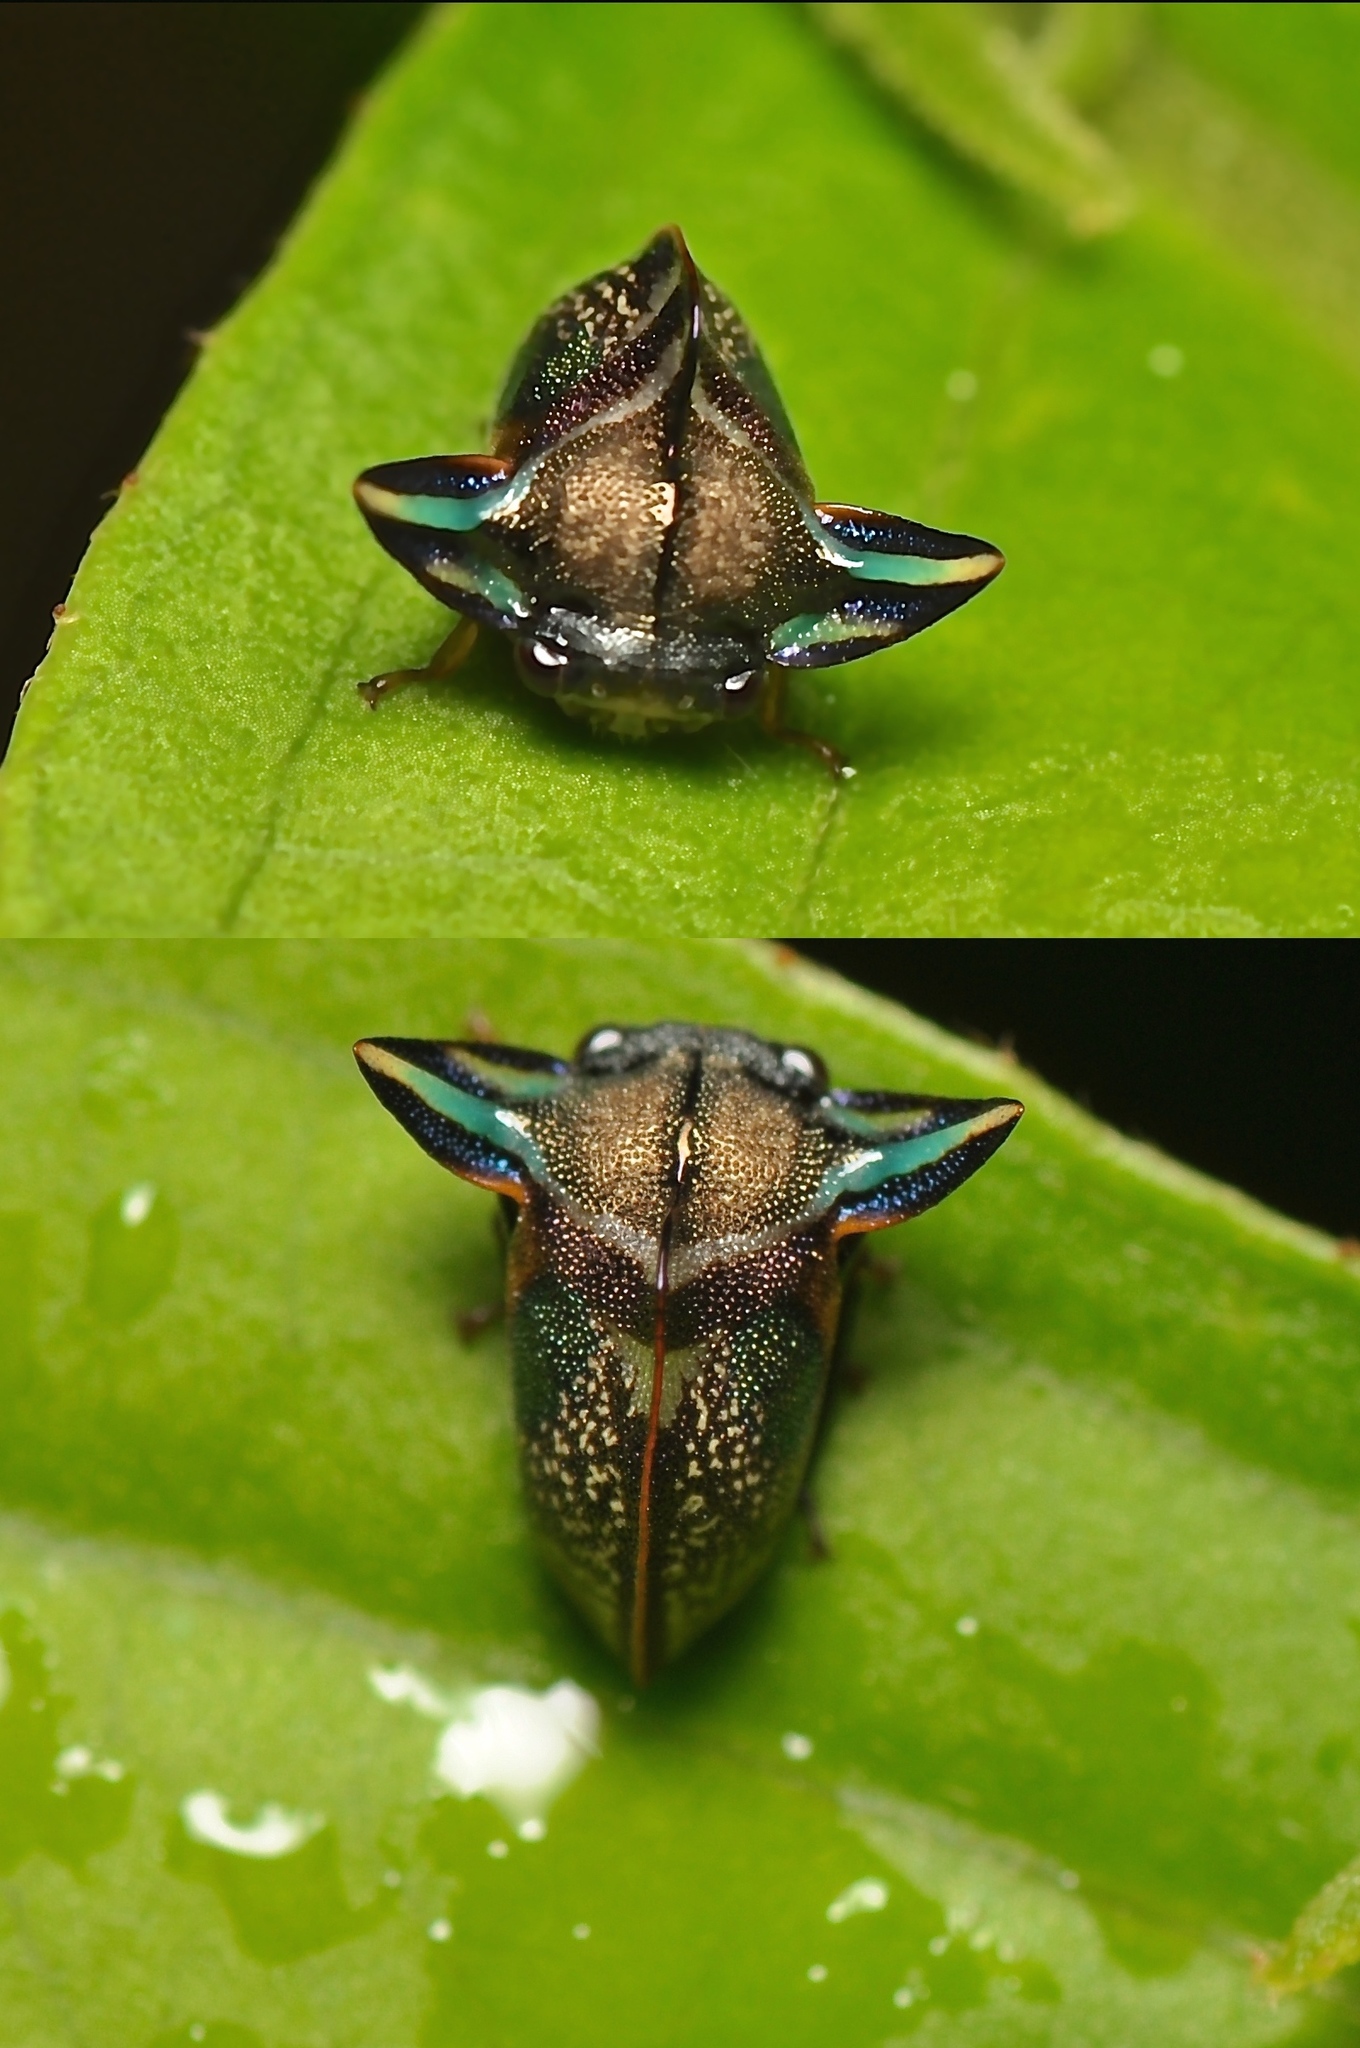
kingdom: Animalia
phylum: Arthropoda
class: Insecta
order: Hemiptera
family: Membracidae
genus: Tropidolomia
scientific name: Tropidolomia auriculata
